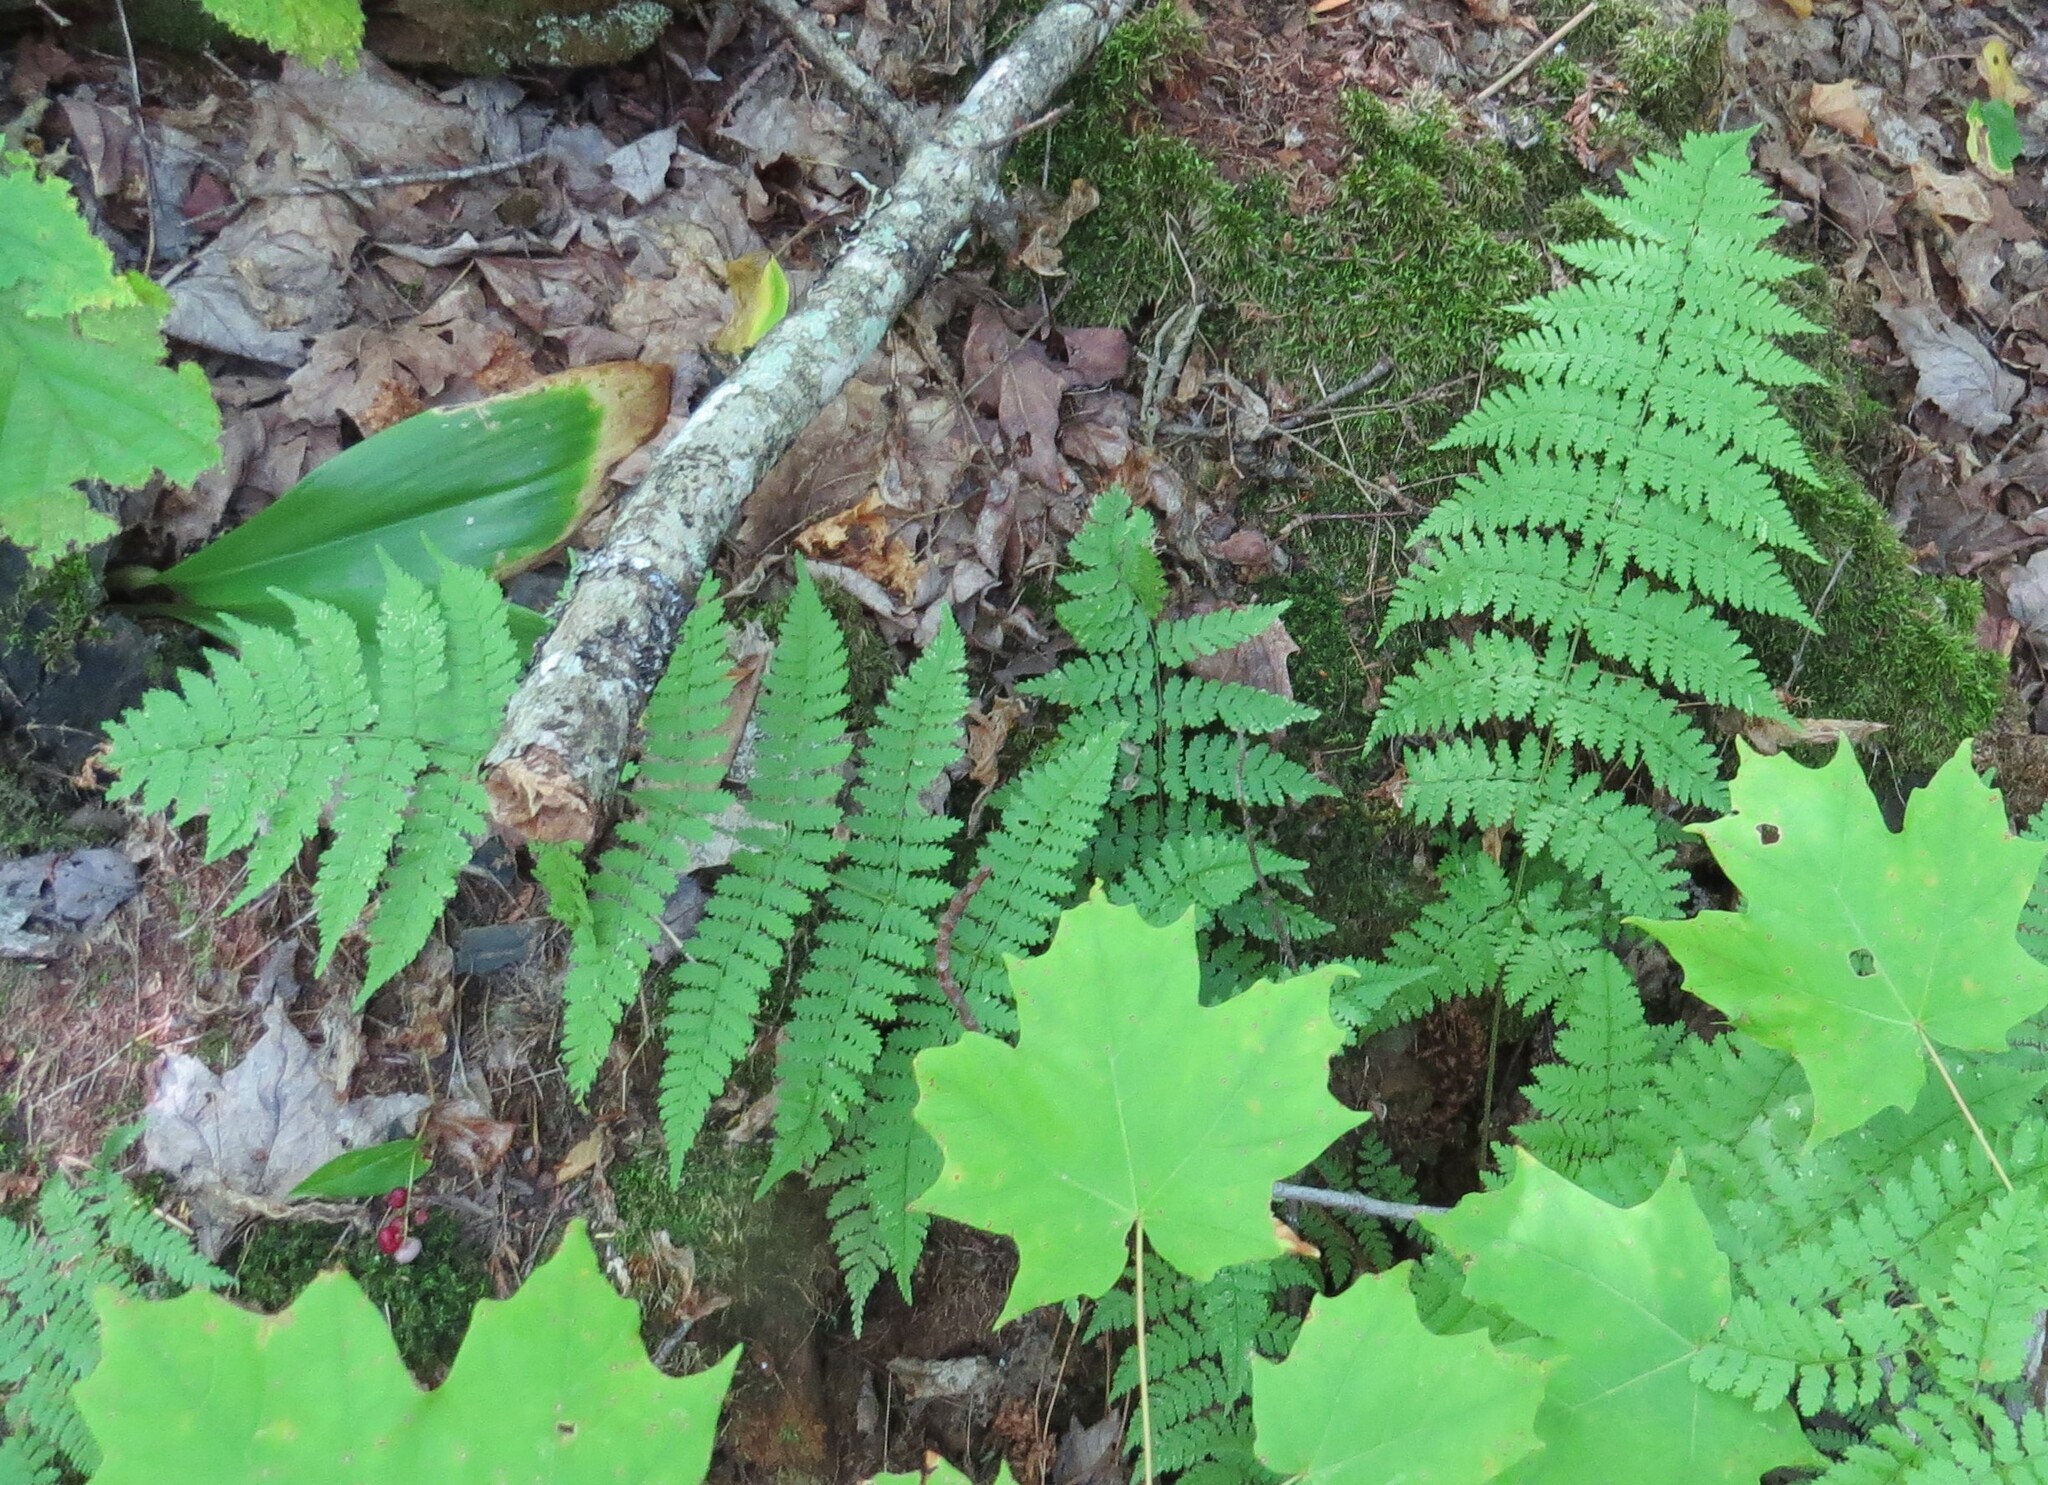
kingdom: Plantae
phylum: Tracheophyta
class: Polypodiopsida
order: Polypodiales
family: Dryopteridaceae
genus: Dryopteris
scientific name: Dryopteris intermedia
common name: Evergreen wood fern
